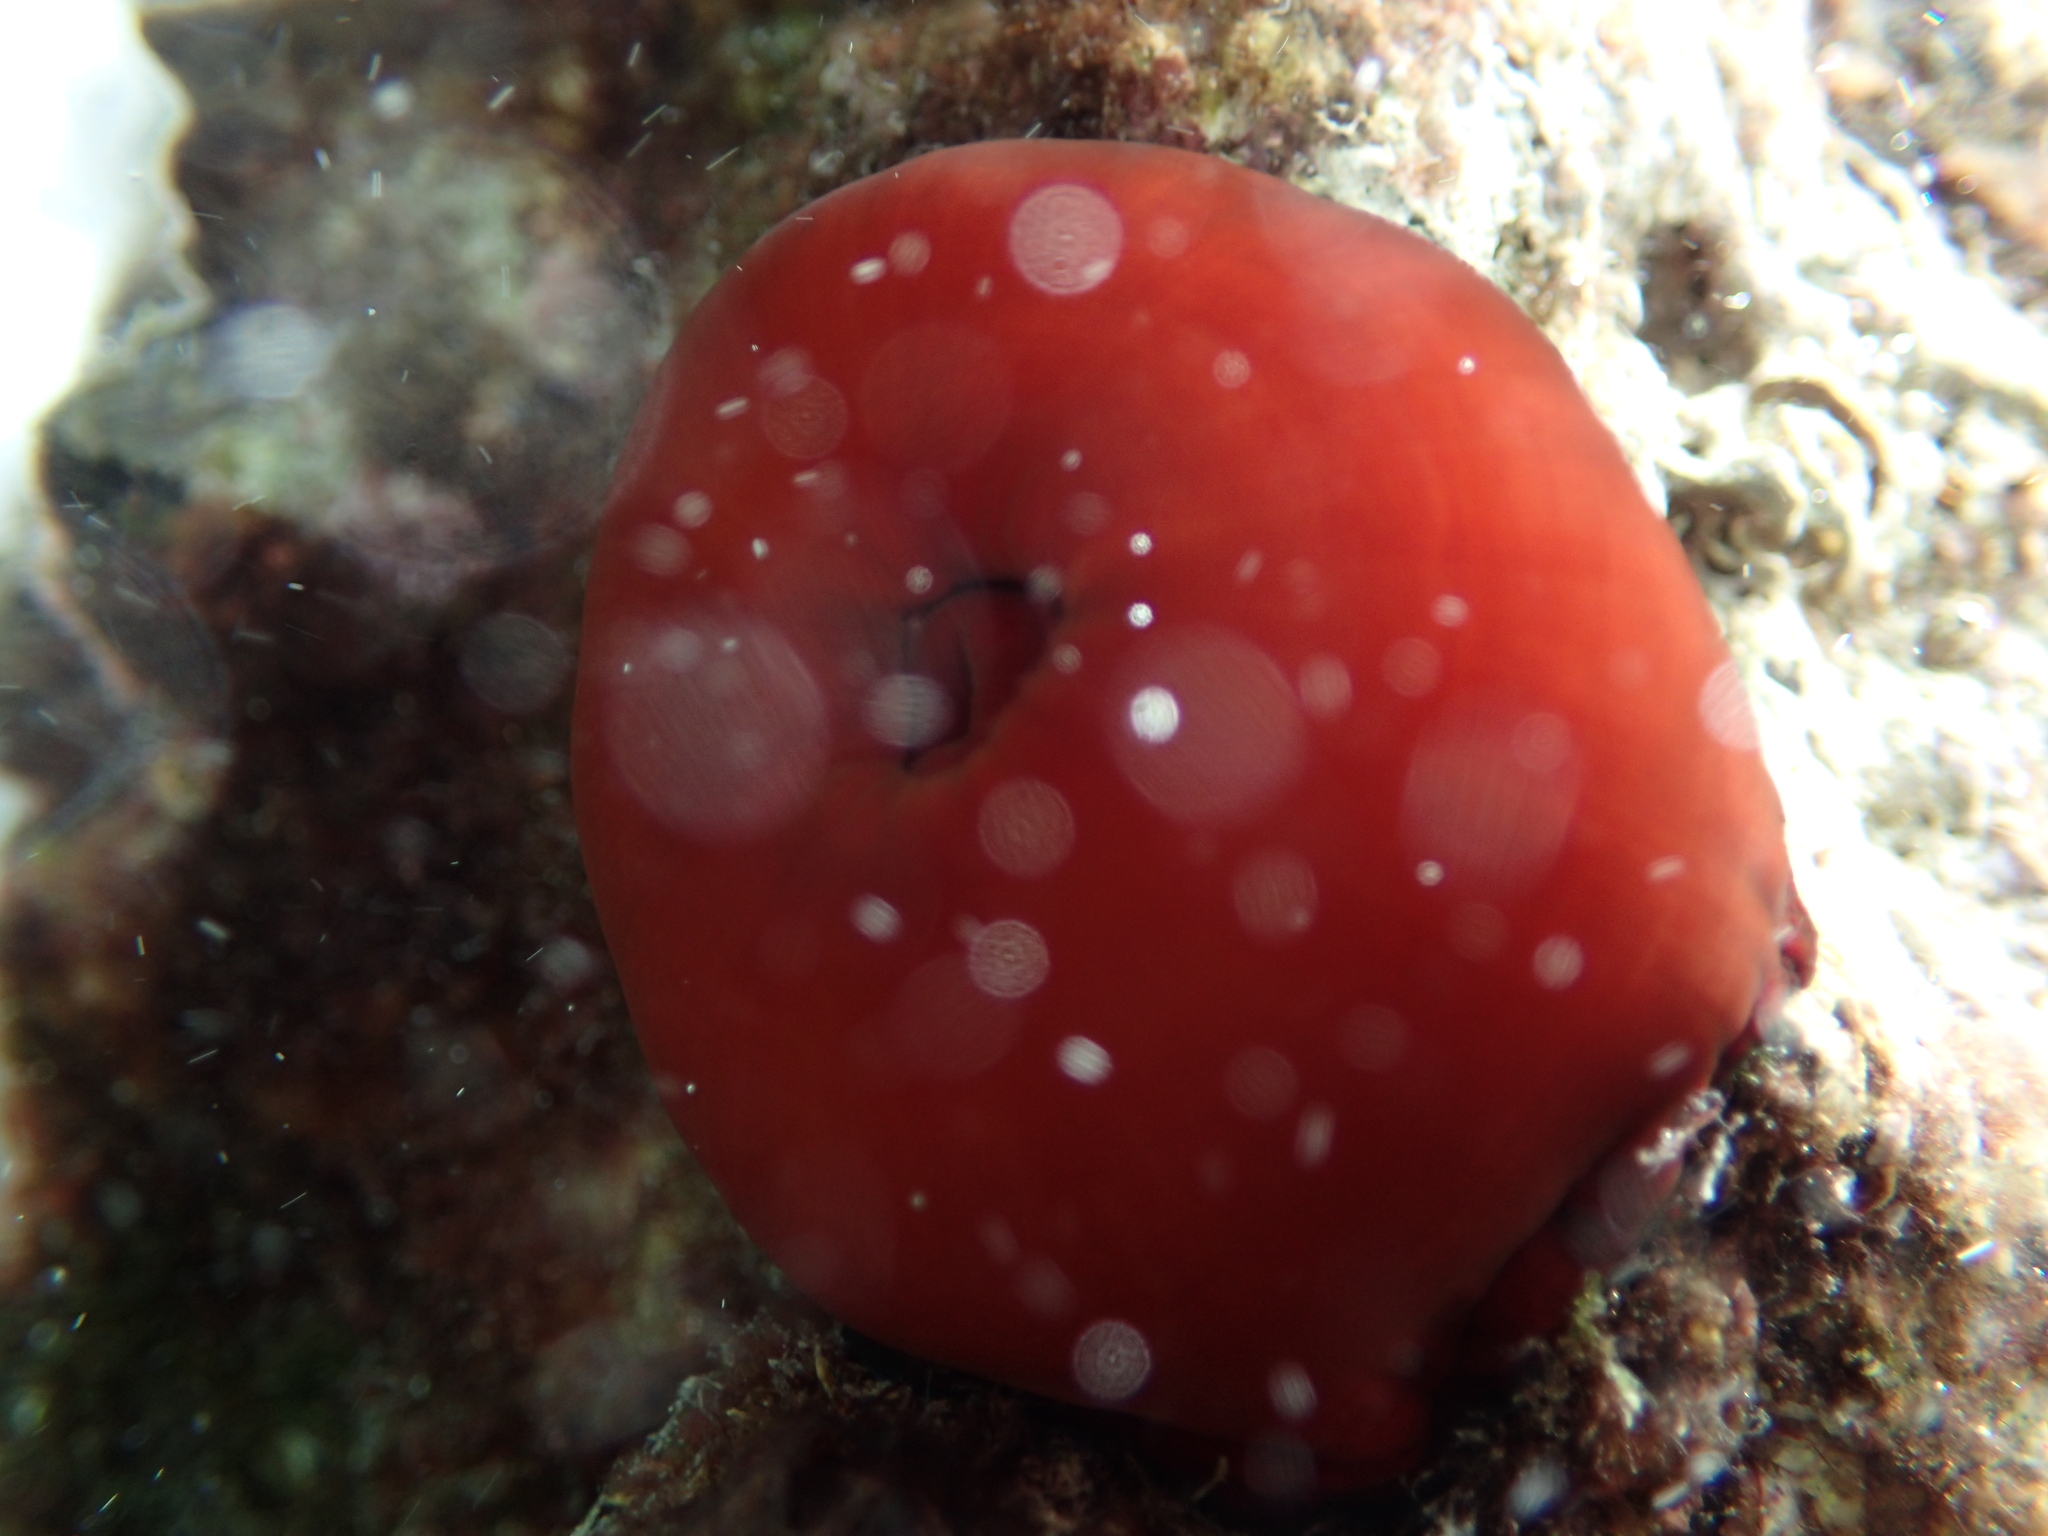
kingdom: Animalia
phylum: Cnidaria
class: Anthozoa
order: Actiniaria
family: Actiniidae
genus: Actinia
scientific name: Actinia mediterranea
